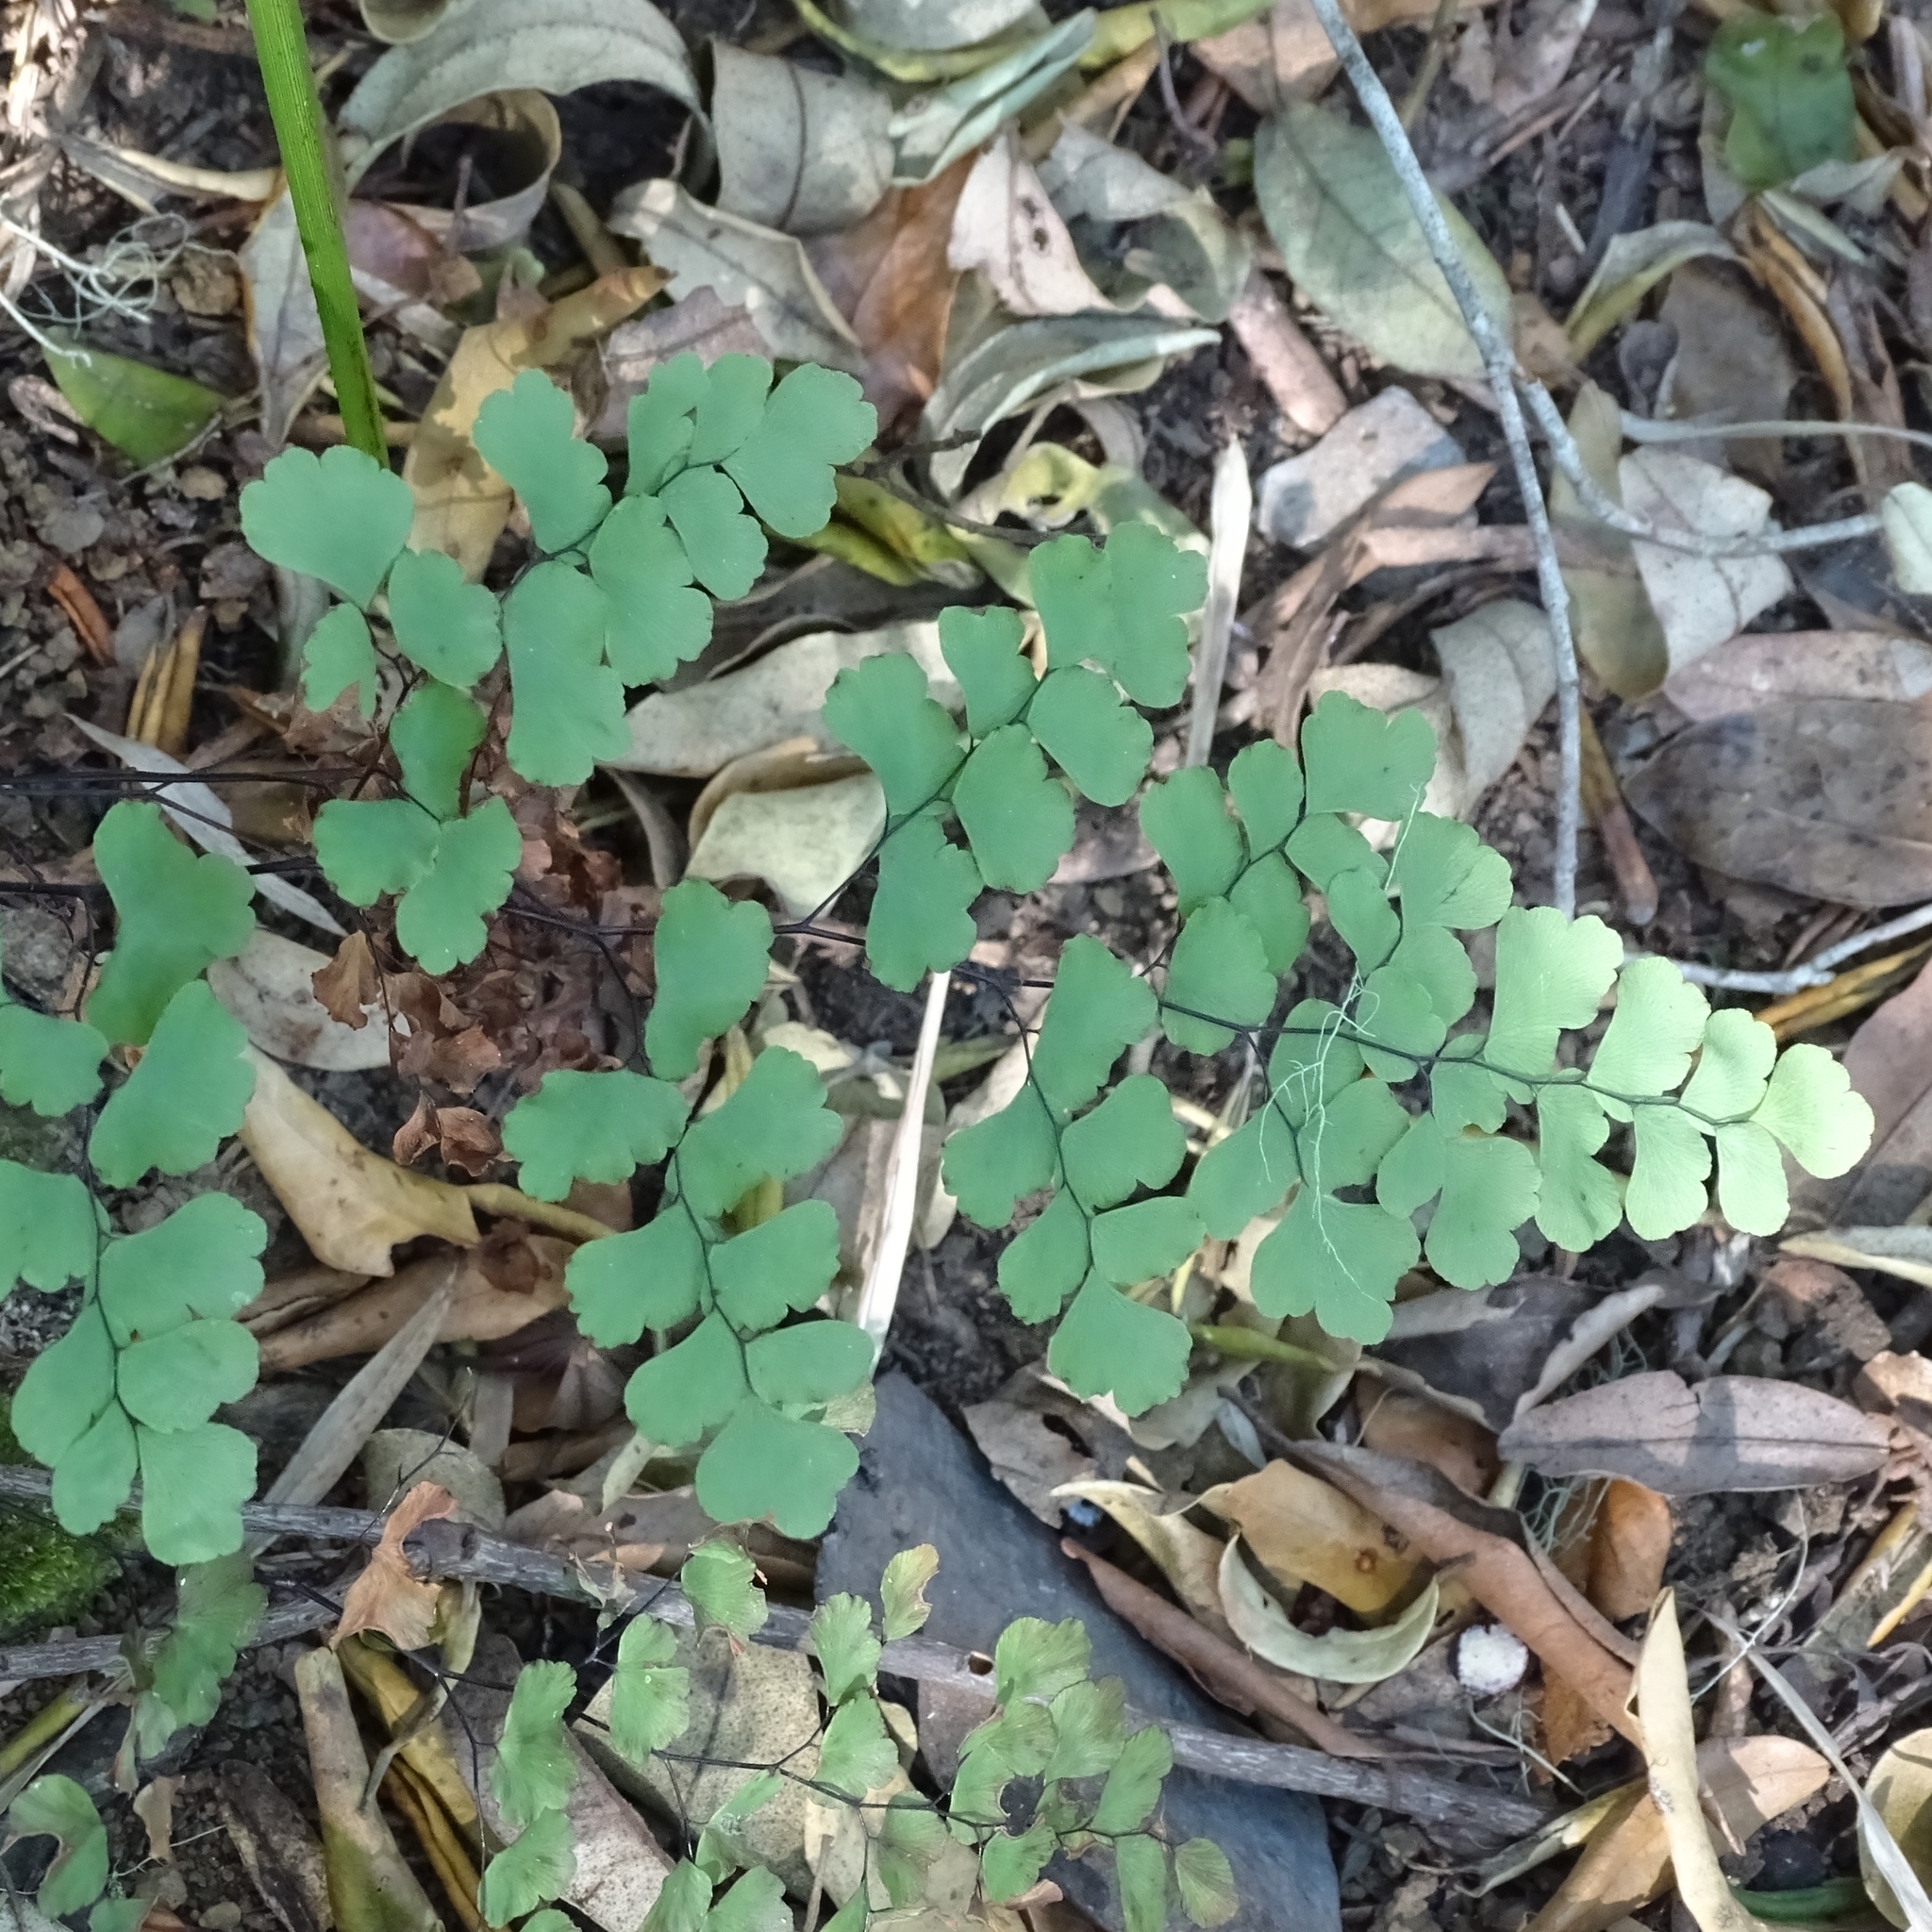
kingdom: Plantae
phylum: Tracheophyta
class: Polypodiopsida
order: Polypodiales
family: Pteridaceae
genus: Adiantum
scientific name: Adiantum chilense
